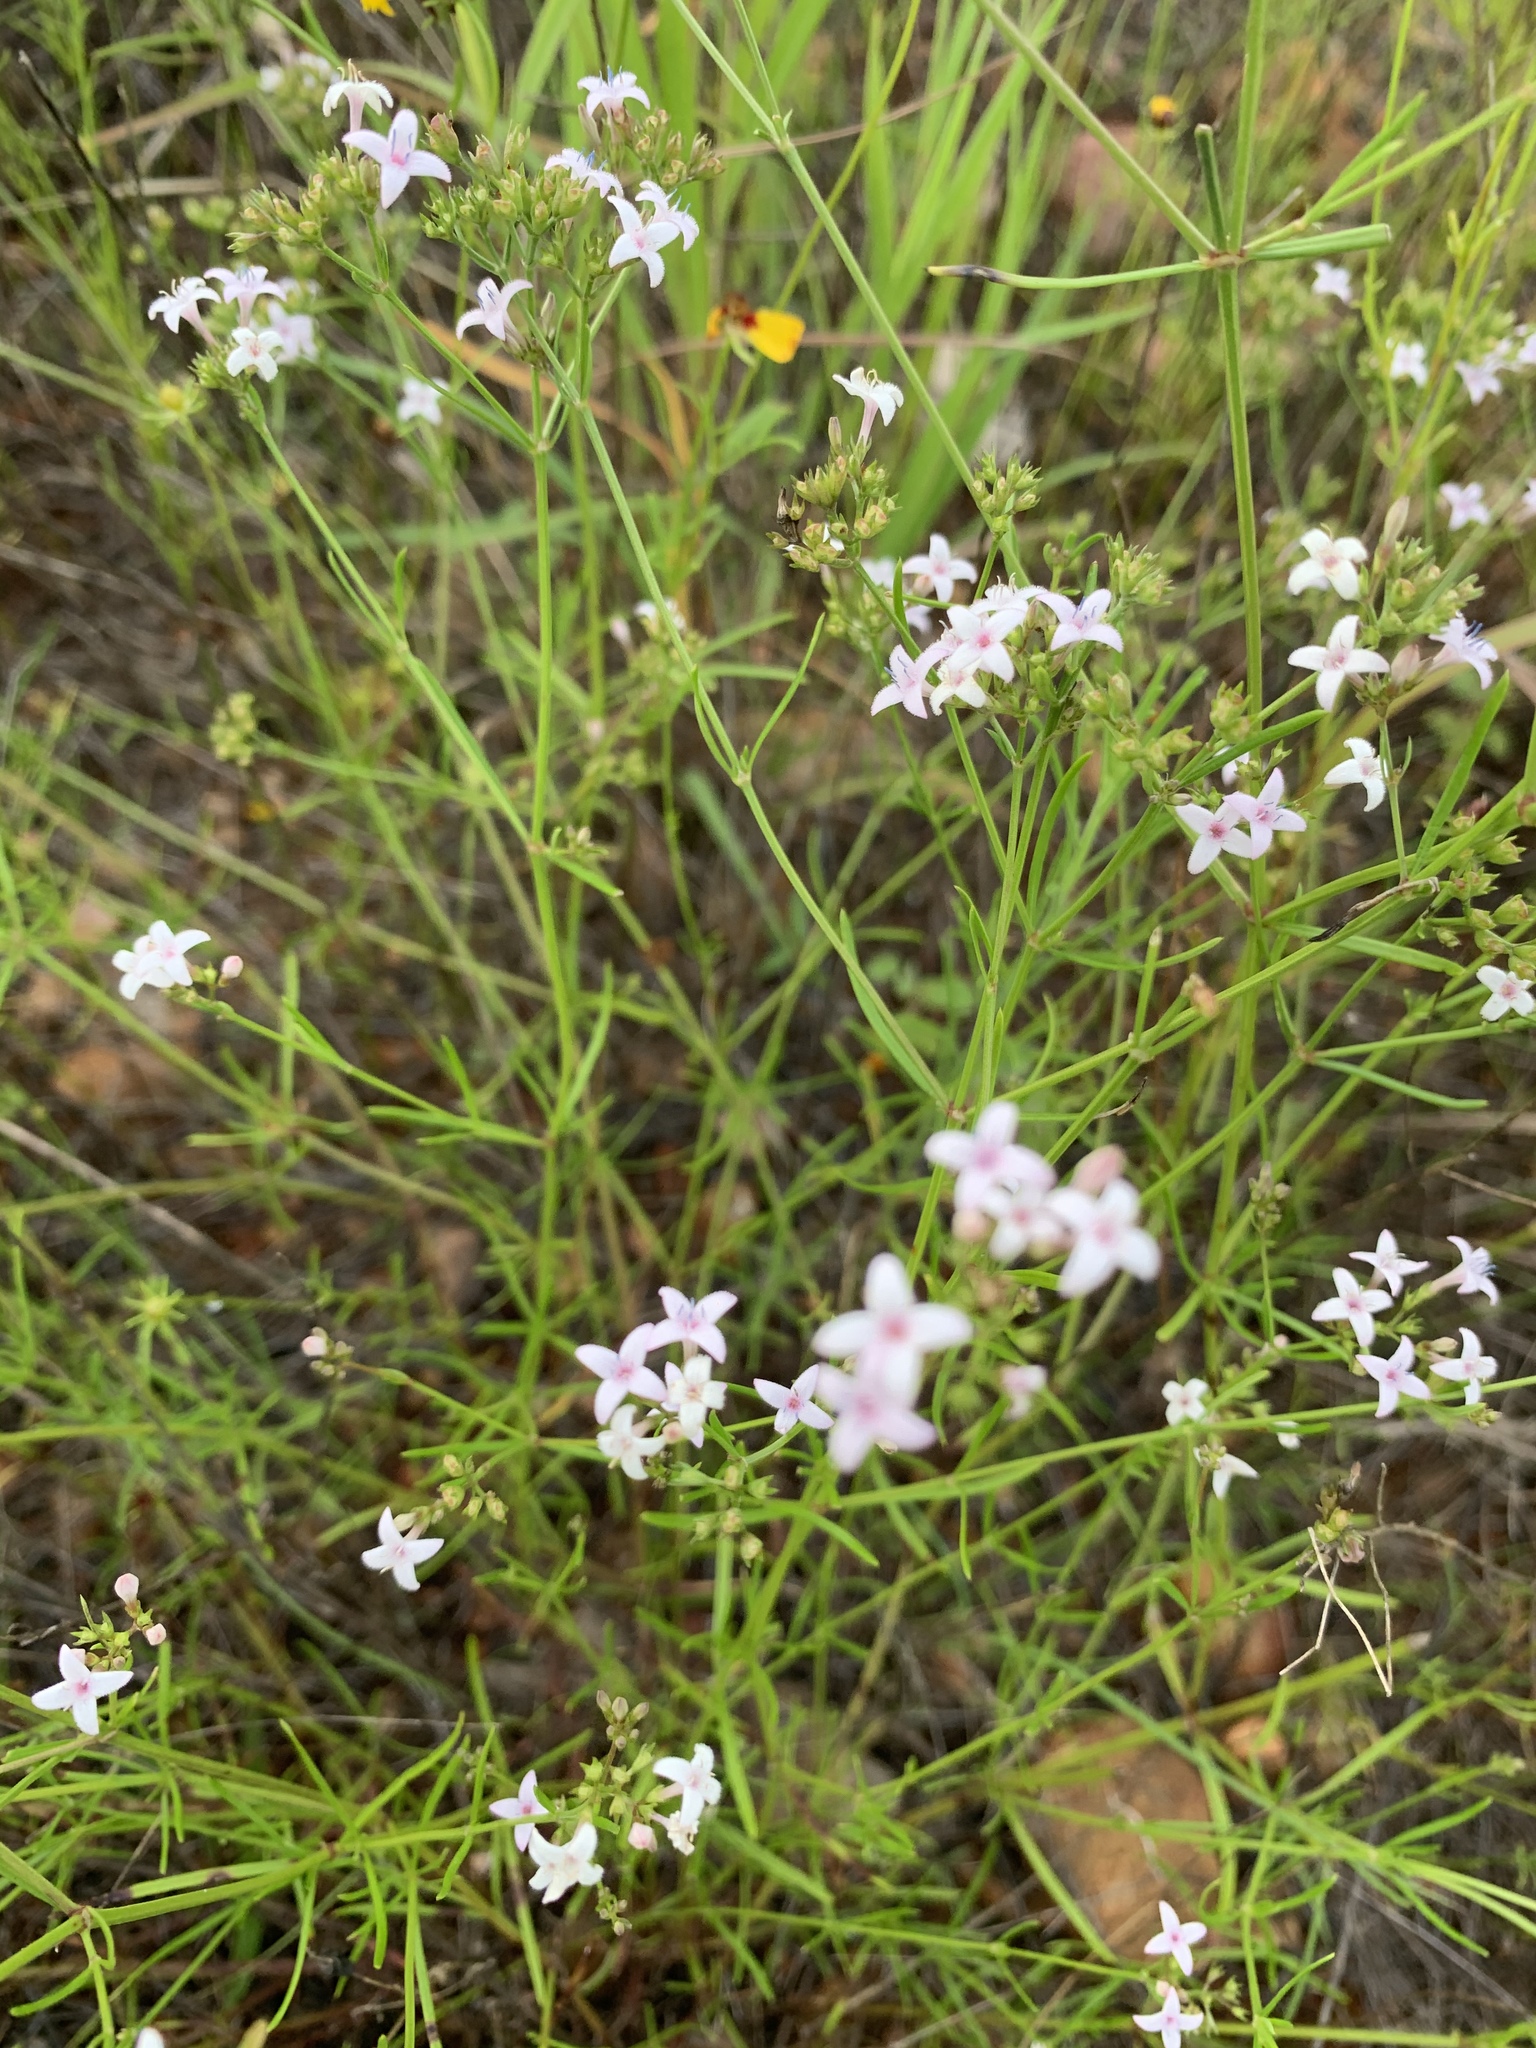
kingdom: Plantae
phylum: Tracheophyta
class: Magnoliopsida
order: Gentianales
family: Rubiaceae
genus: Stenaria
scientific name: Stenaria nigricans
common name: Diamondflowers
